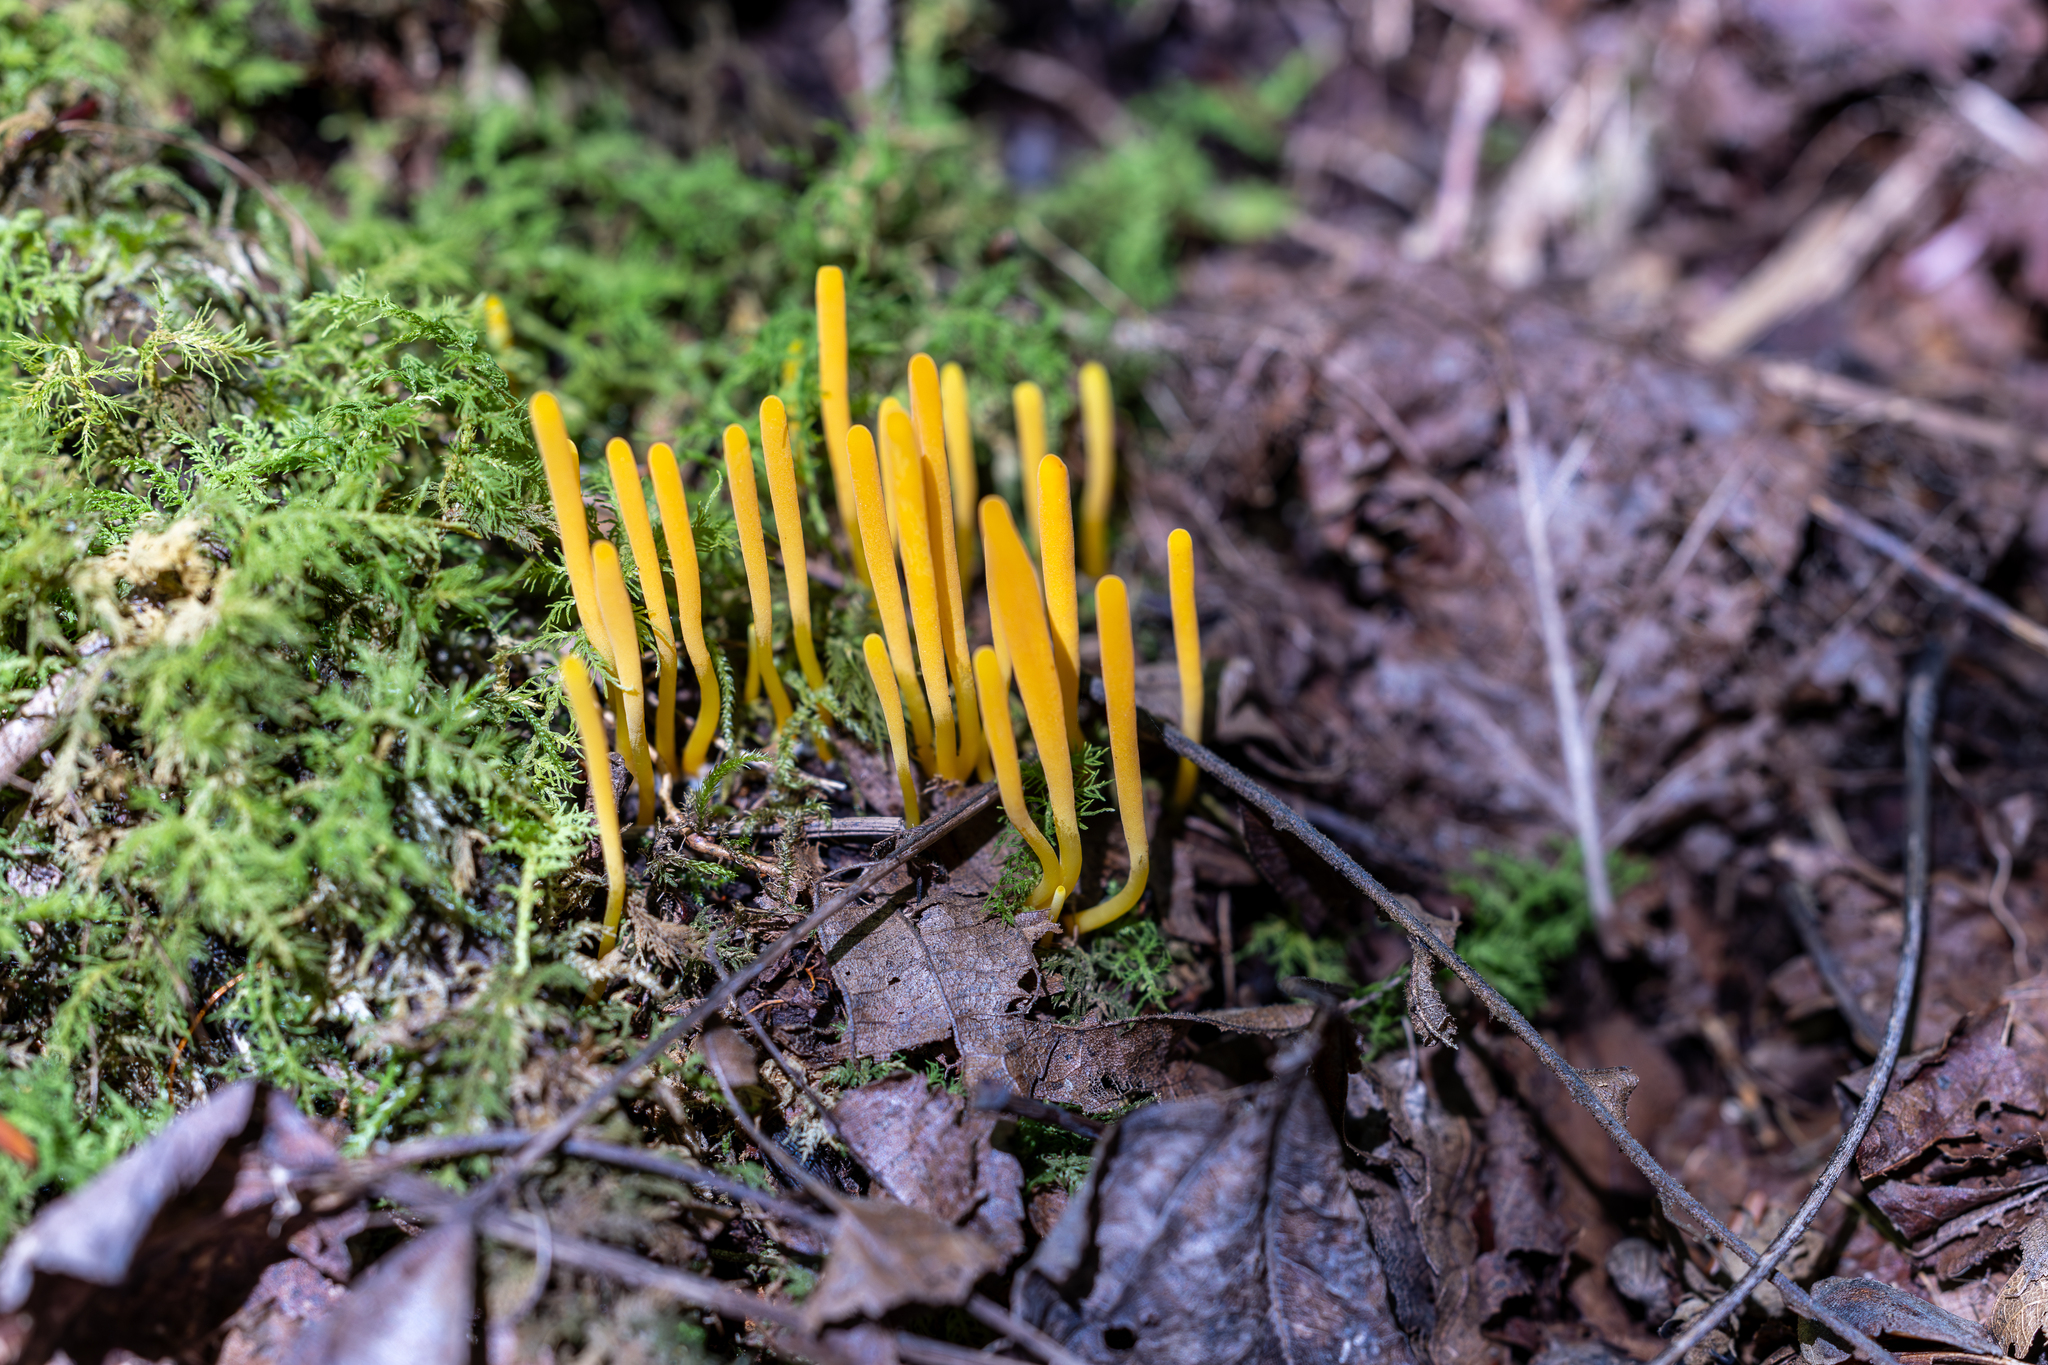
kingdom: Fungi
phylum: Basidiomycota
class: Agaricomycetes
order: Agaricales
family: Clavariaceae
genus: Clavulinopsis
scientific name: Clavulinopsis laeticolor
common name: Handsome club
